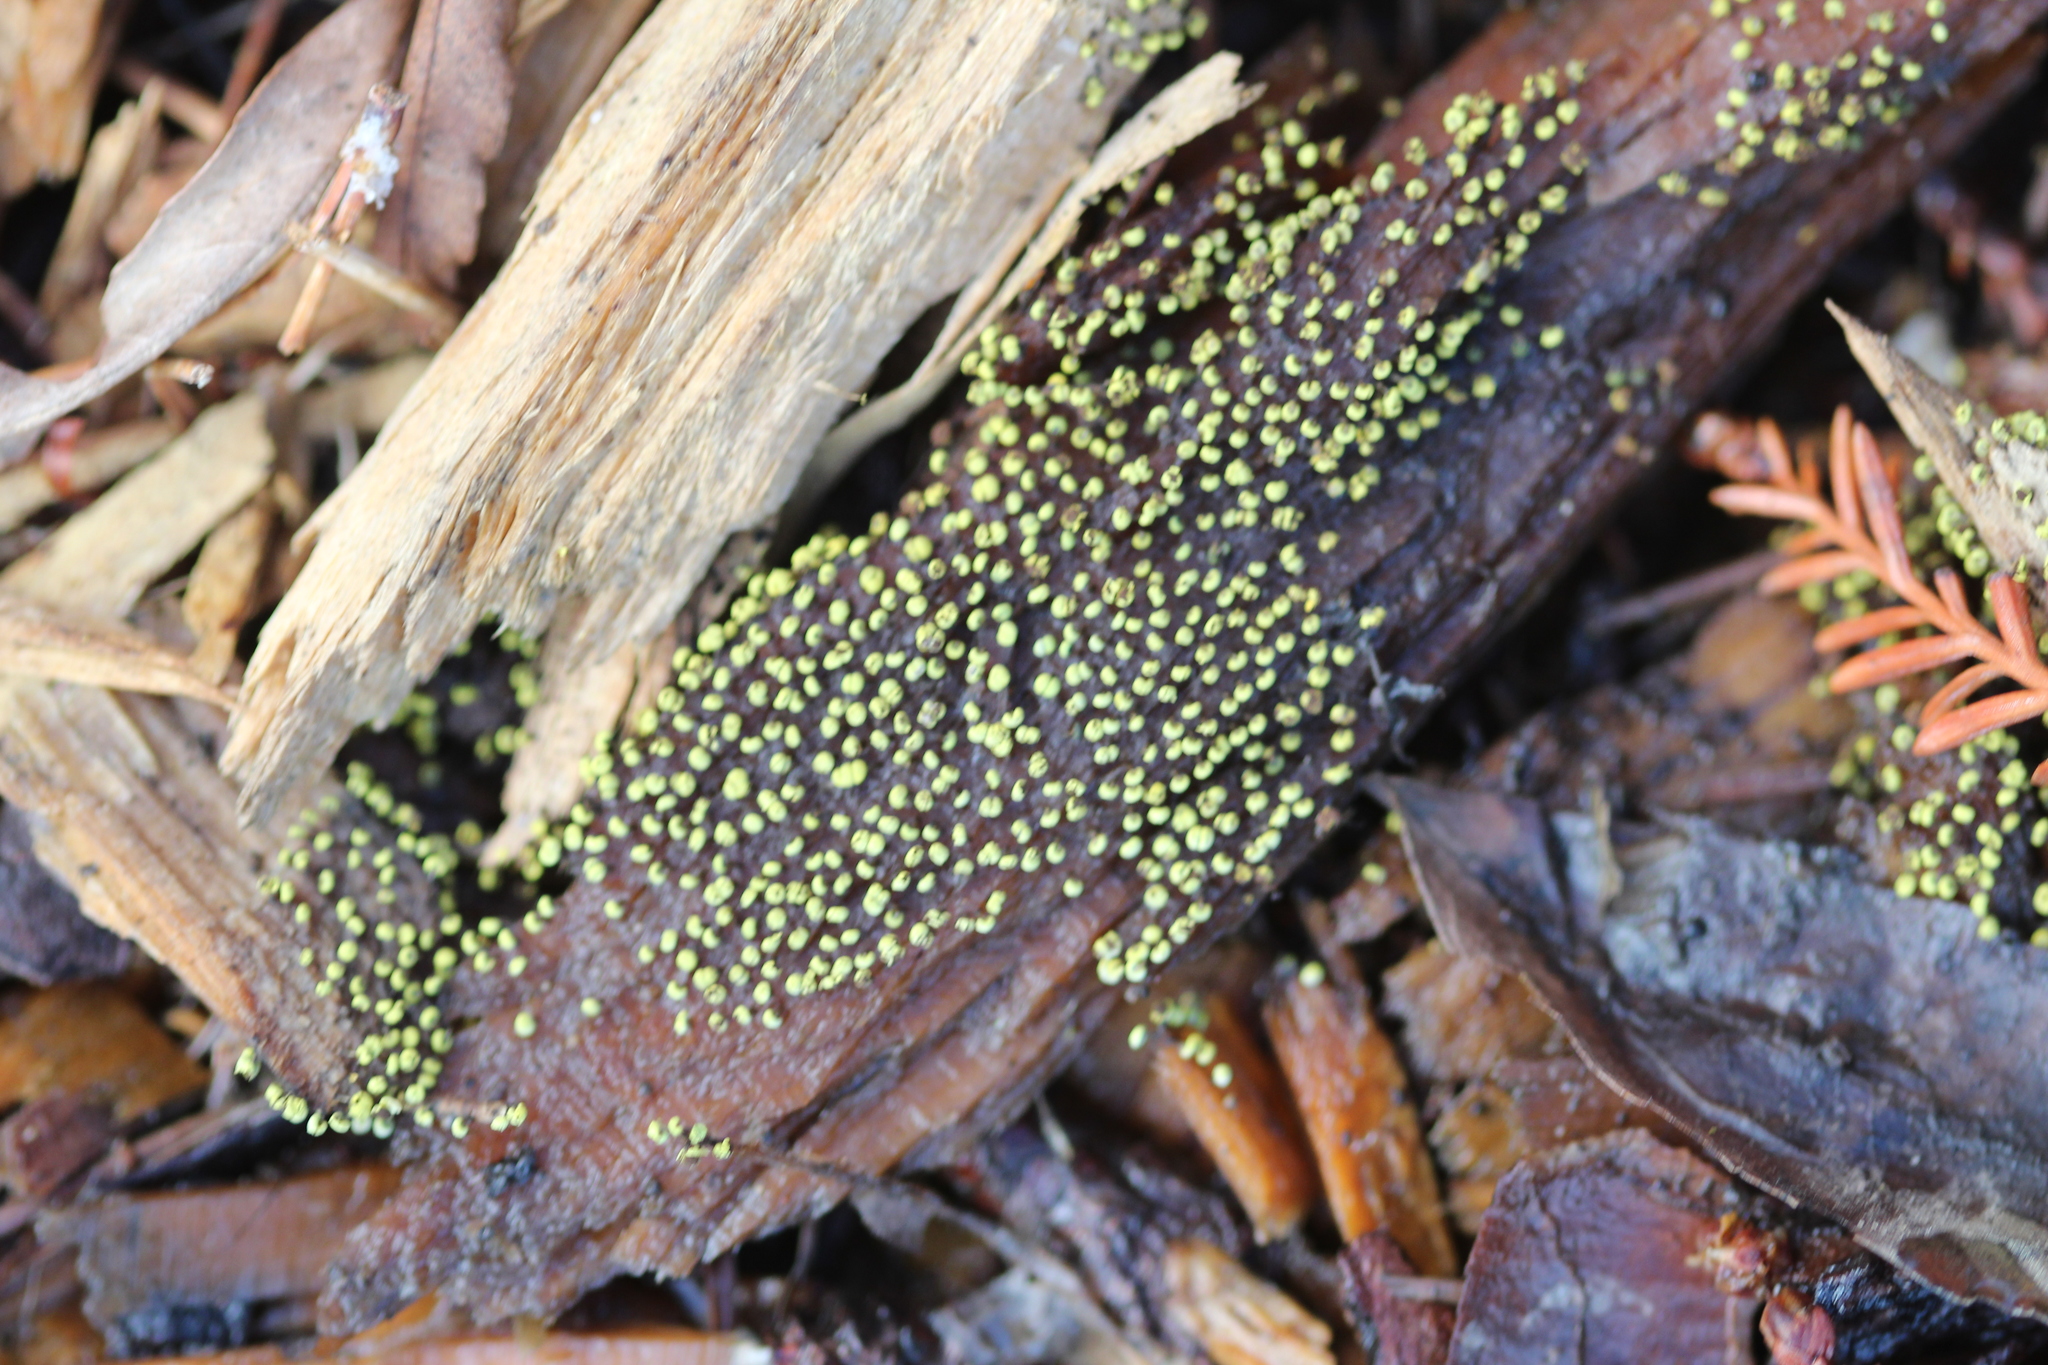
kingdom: Protozoa
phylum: Mycetozoa
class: Myxomycetes
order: Physarales
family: Physaraceae
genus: Physarum
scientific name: Physarum viride
